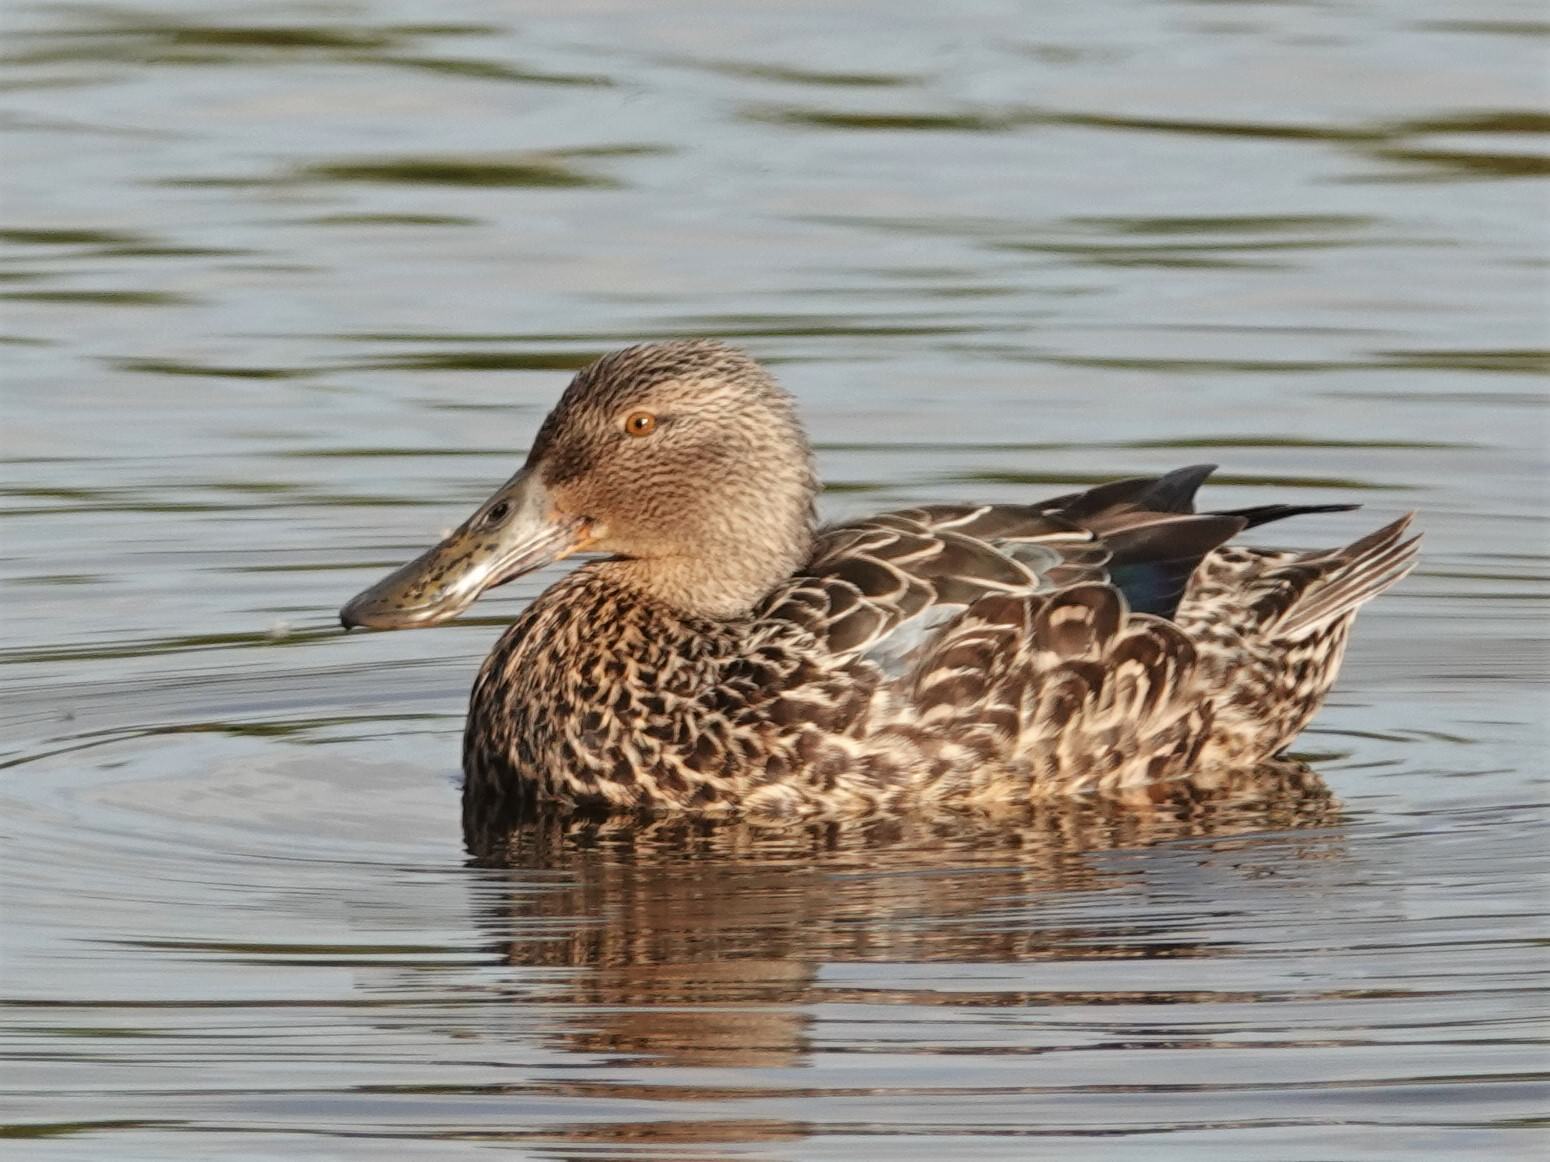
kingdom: Animalia
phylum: Chordata
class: Aves
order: Anseriformes
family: Anatidae
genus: Spatula
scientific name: Spatula rhynchotis
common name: Australian shoveler
